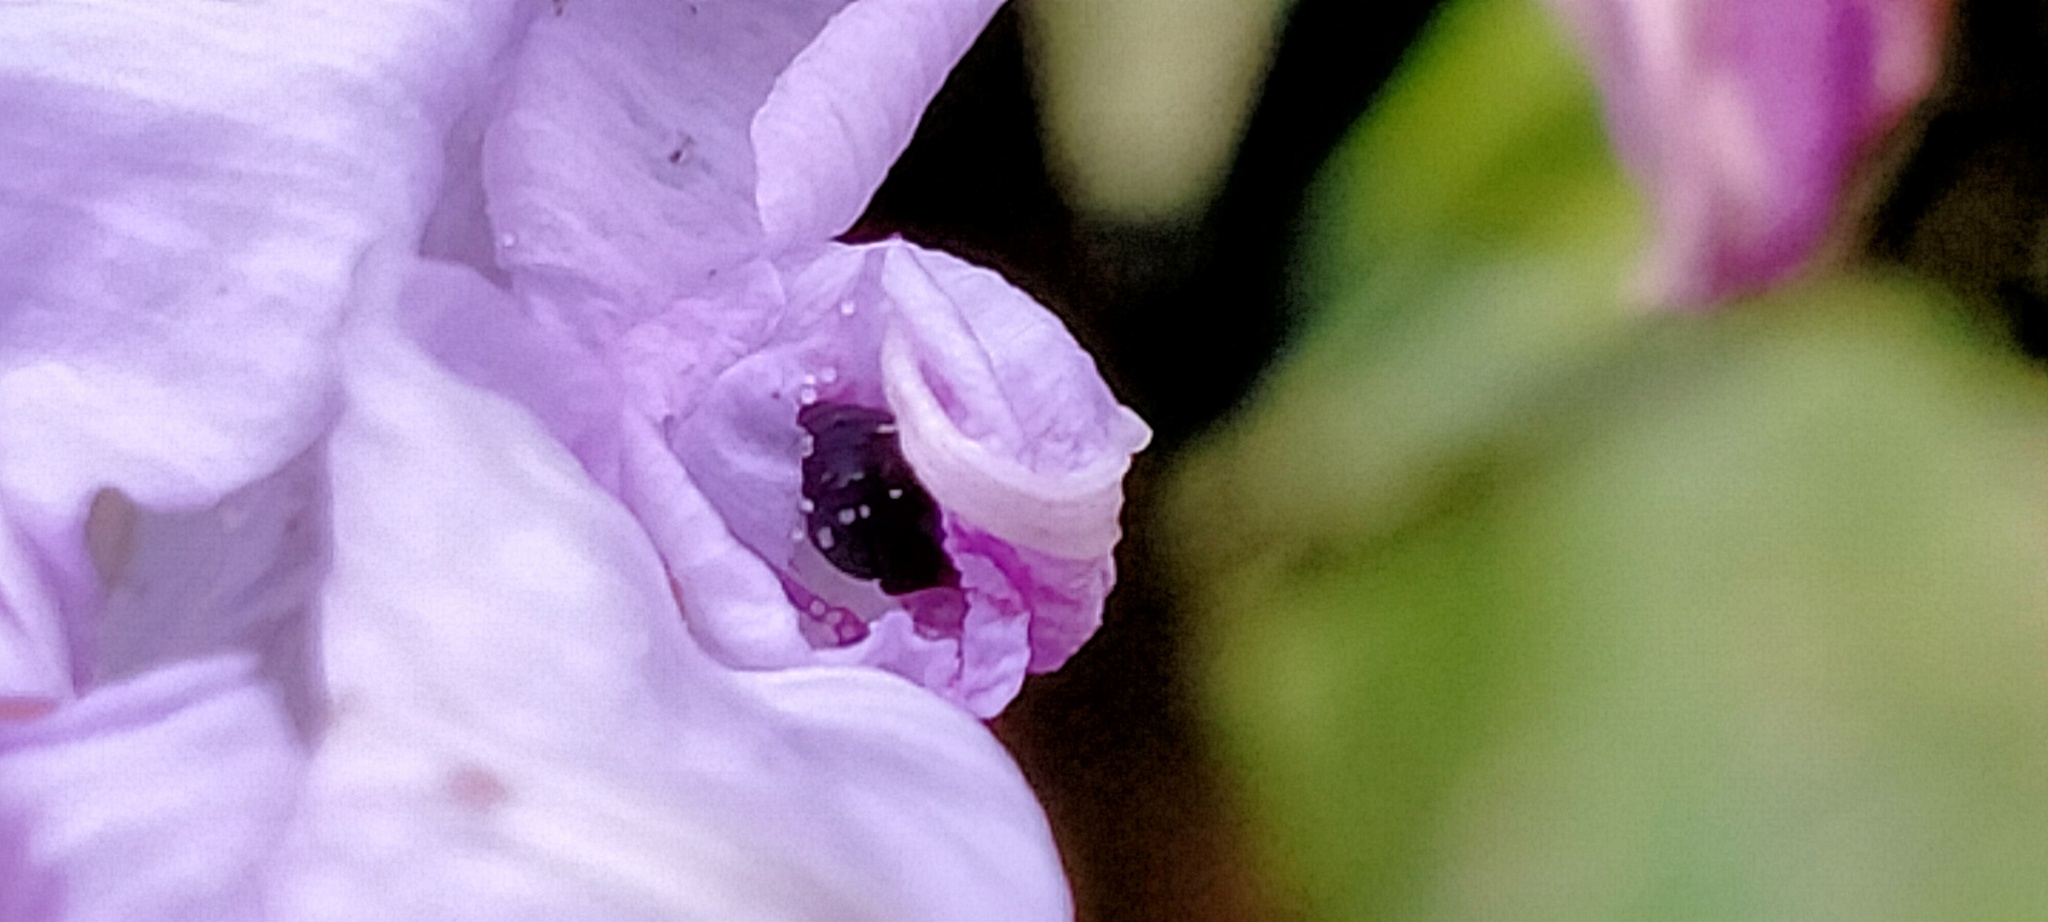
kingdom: Plantae
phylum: Tracheophyta
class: Magnoliopsida
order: Solanales
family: Convolvulaceae
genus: Ipomoea
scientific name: Ipomoea indica
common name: Blue dawnflower
